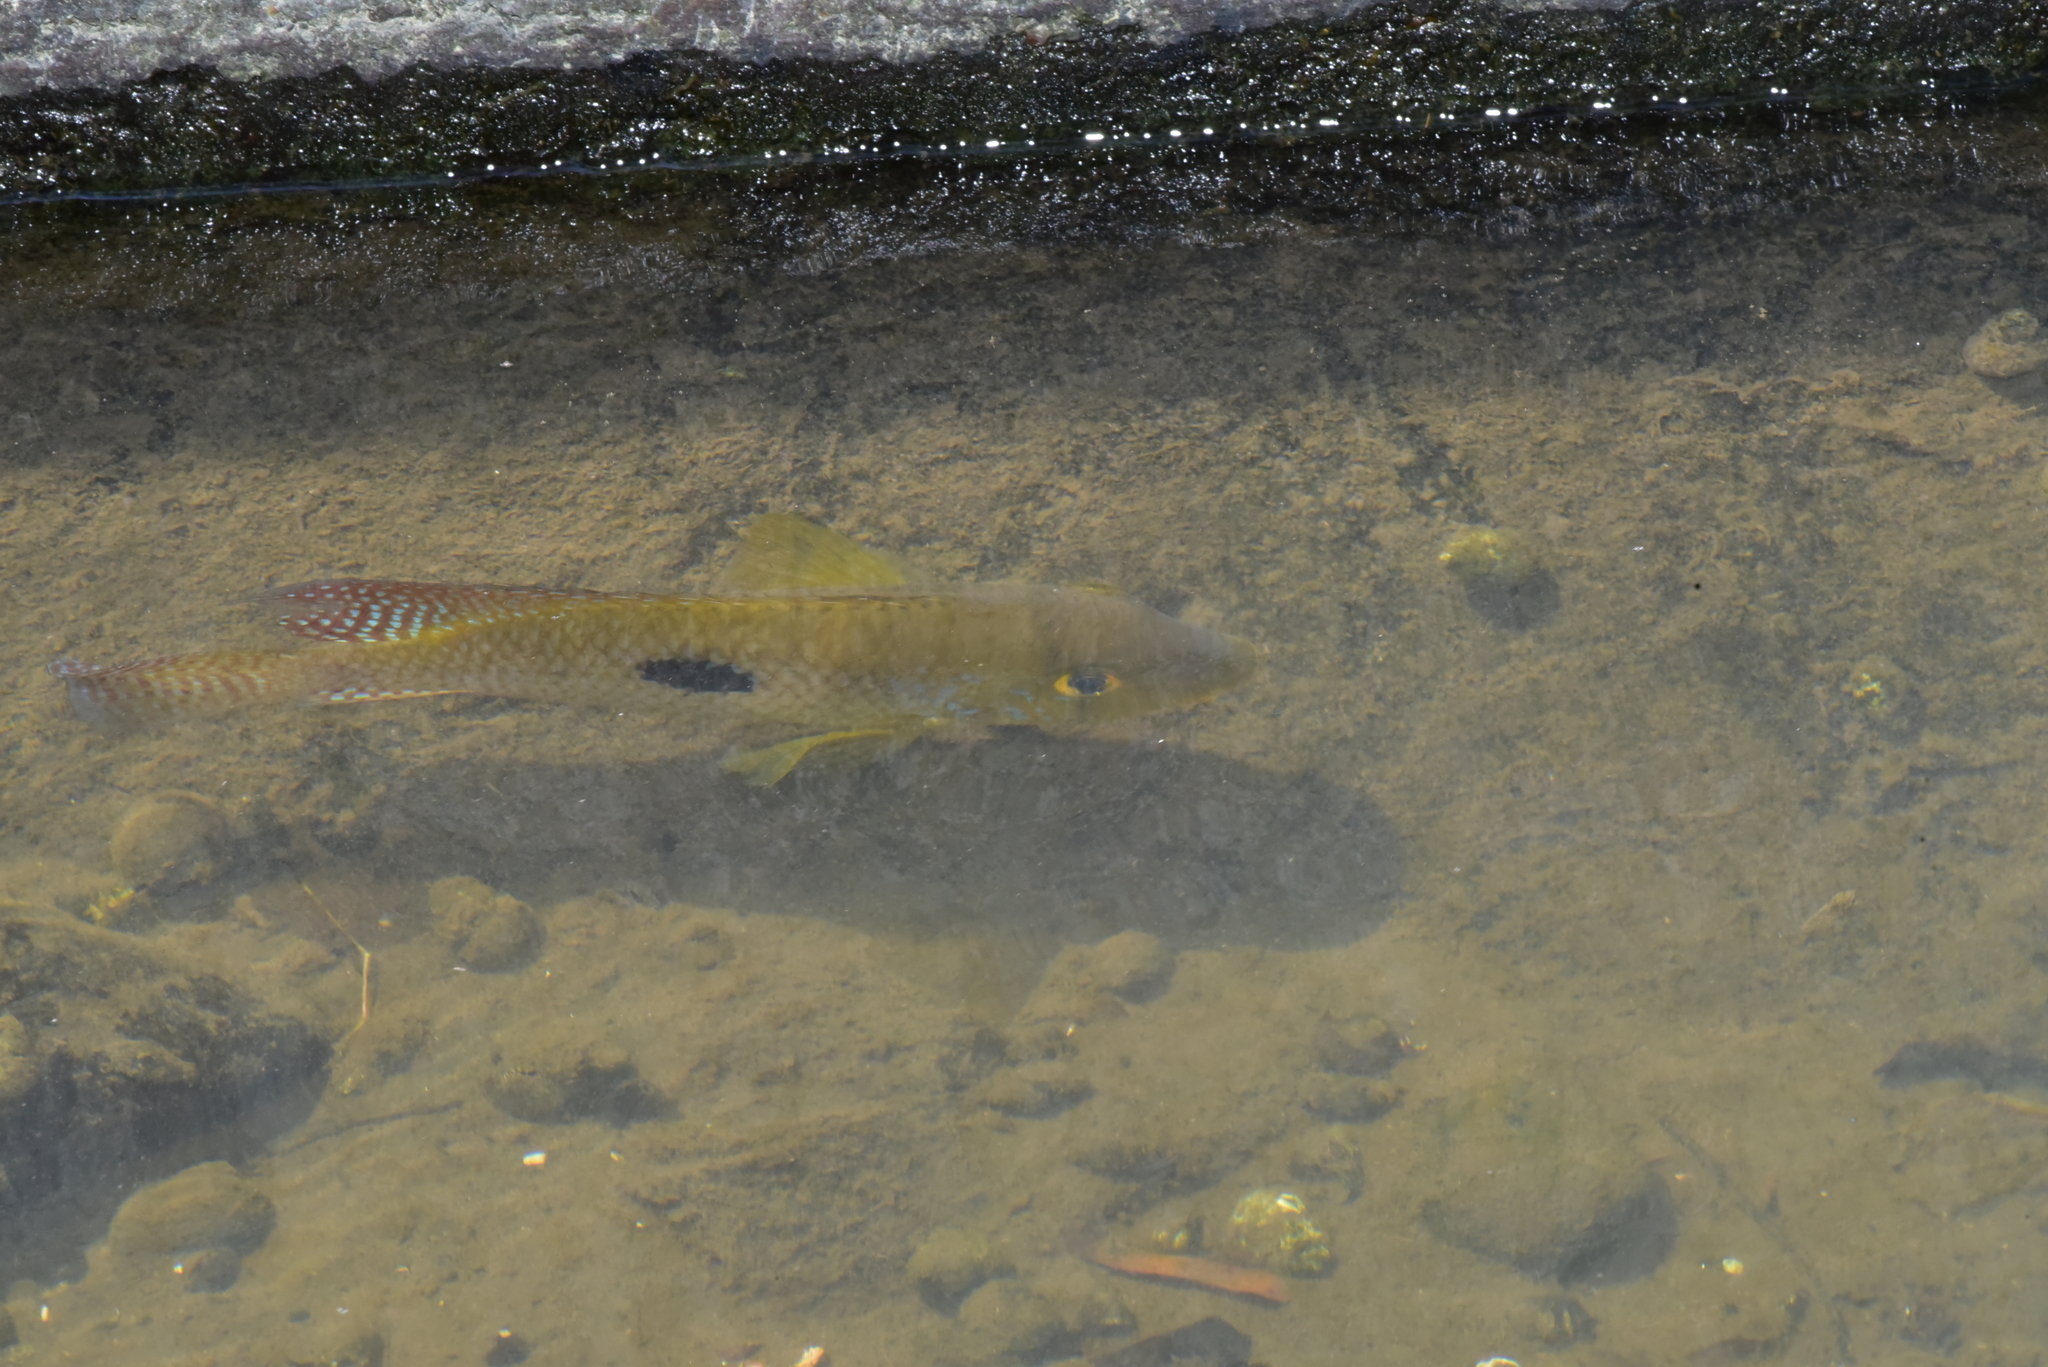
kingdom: Animalia
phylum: Chordata
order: Perciformes
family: Cichlidae
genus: Geophagus
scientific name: Geophagus brasiliensis
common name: Braziliensis
